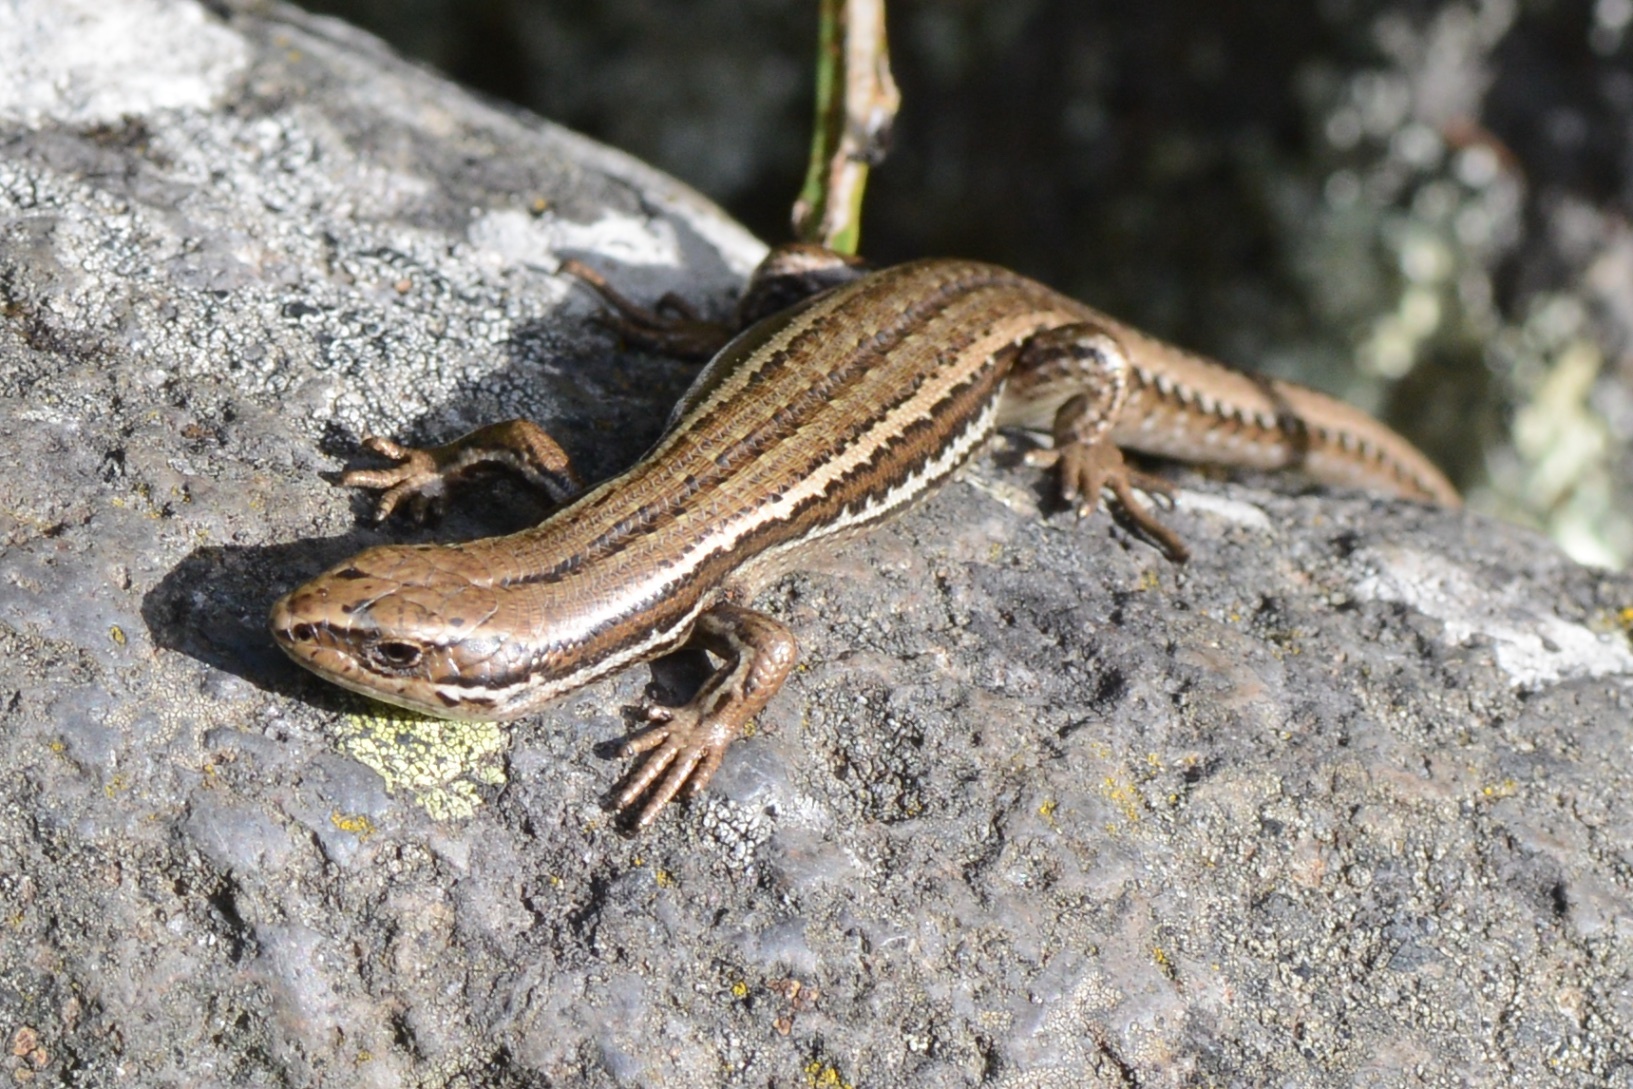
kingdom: Animalia
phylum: Chordata
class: Squamata
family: Scincidae
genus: Oligosoma
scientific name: Oligosoma polychroma
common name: Common new zealand skink
